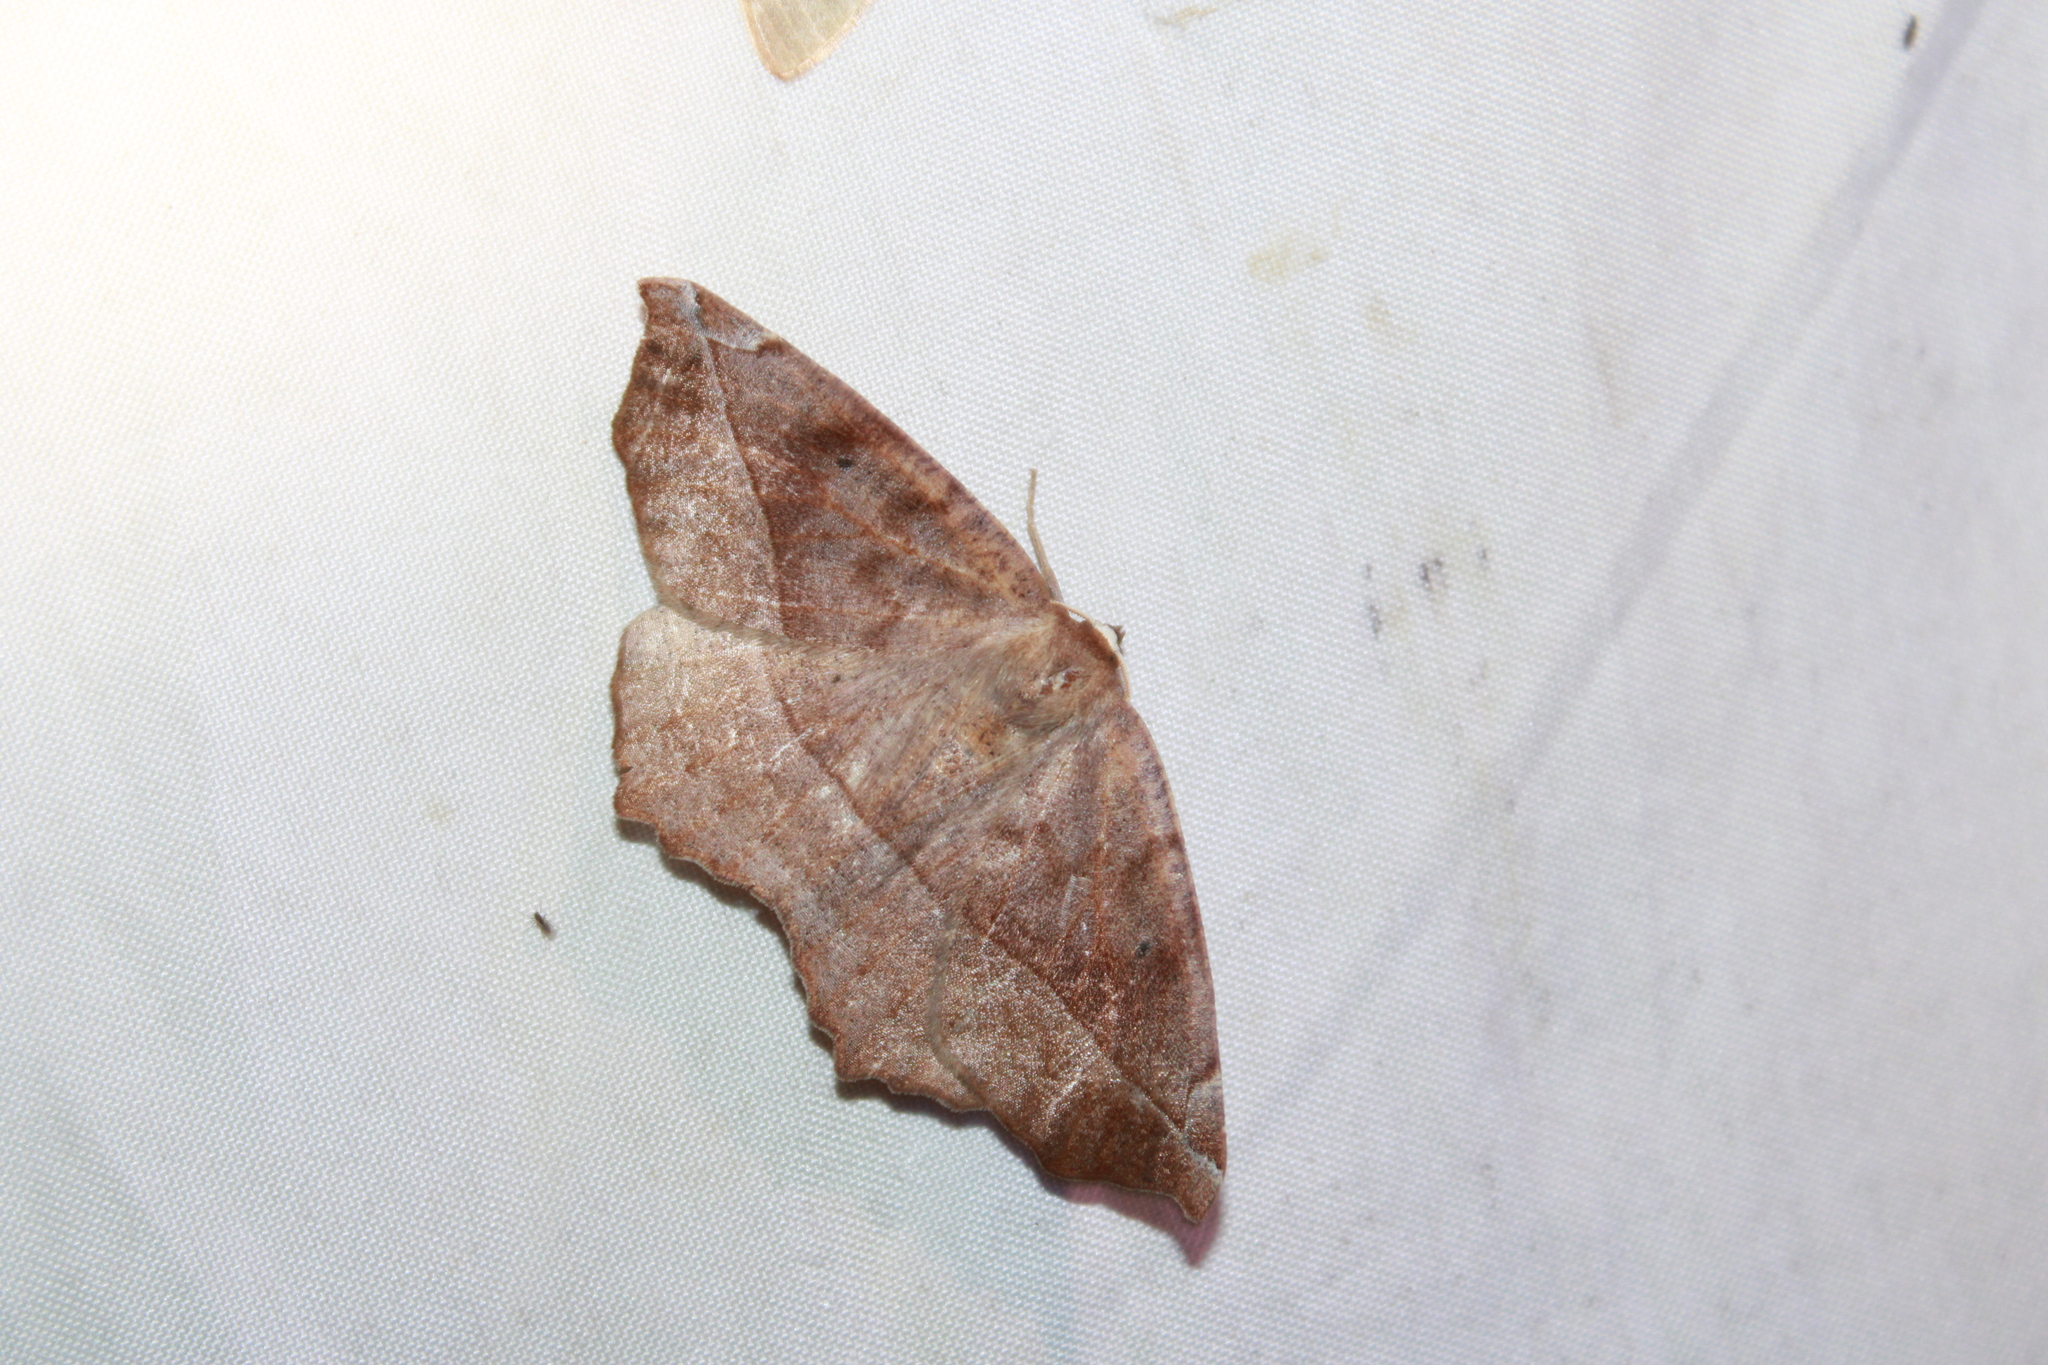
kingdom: Animalia
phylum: Arthropoda
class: Insecta
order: Lepidoptera
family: Geometridae
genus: Eutrapela
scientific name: Eutrapela clemataria
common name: Curved-toothed geometer
